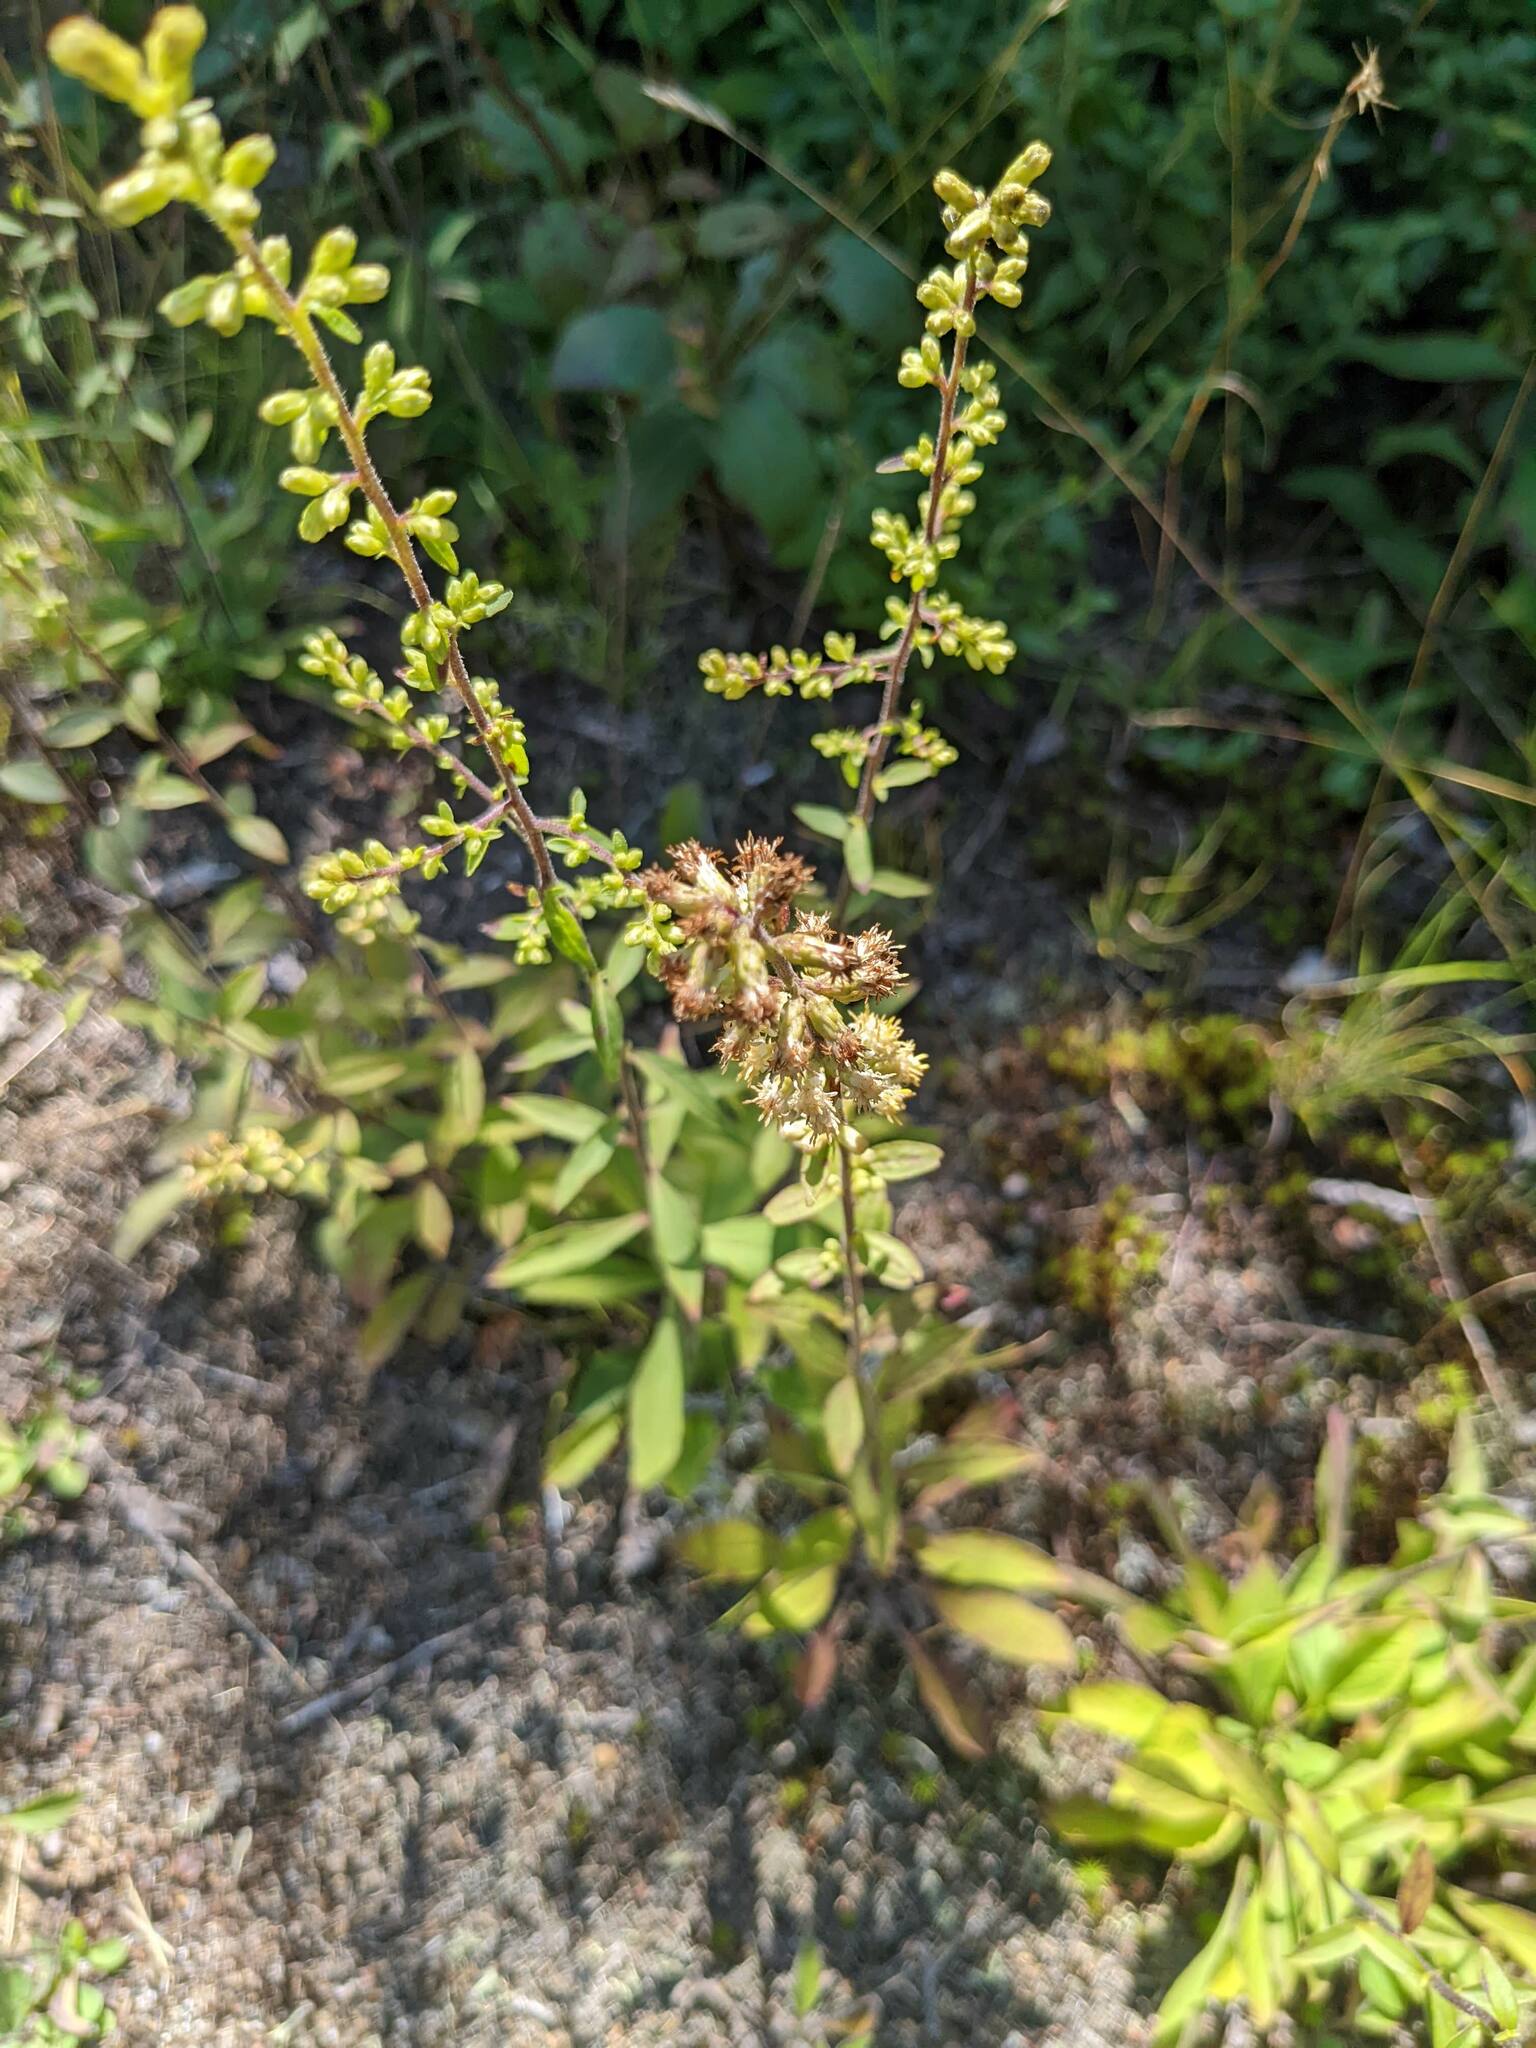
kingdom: Plantae
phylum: Tracheophyta
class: Magnoliopsida
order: Asterales
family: Asteraceae
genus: Solidago
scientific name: Solidago bicolor
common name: Silverrod
